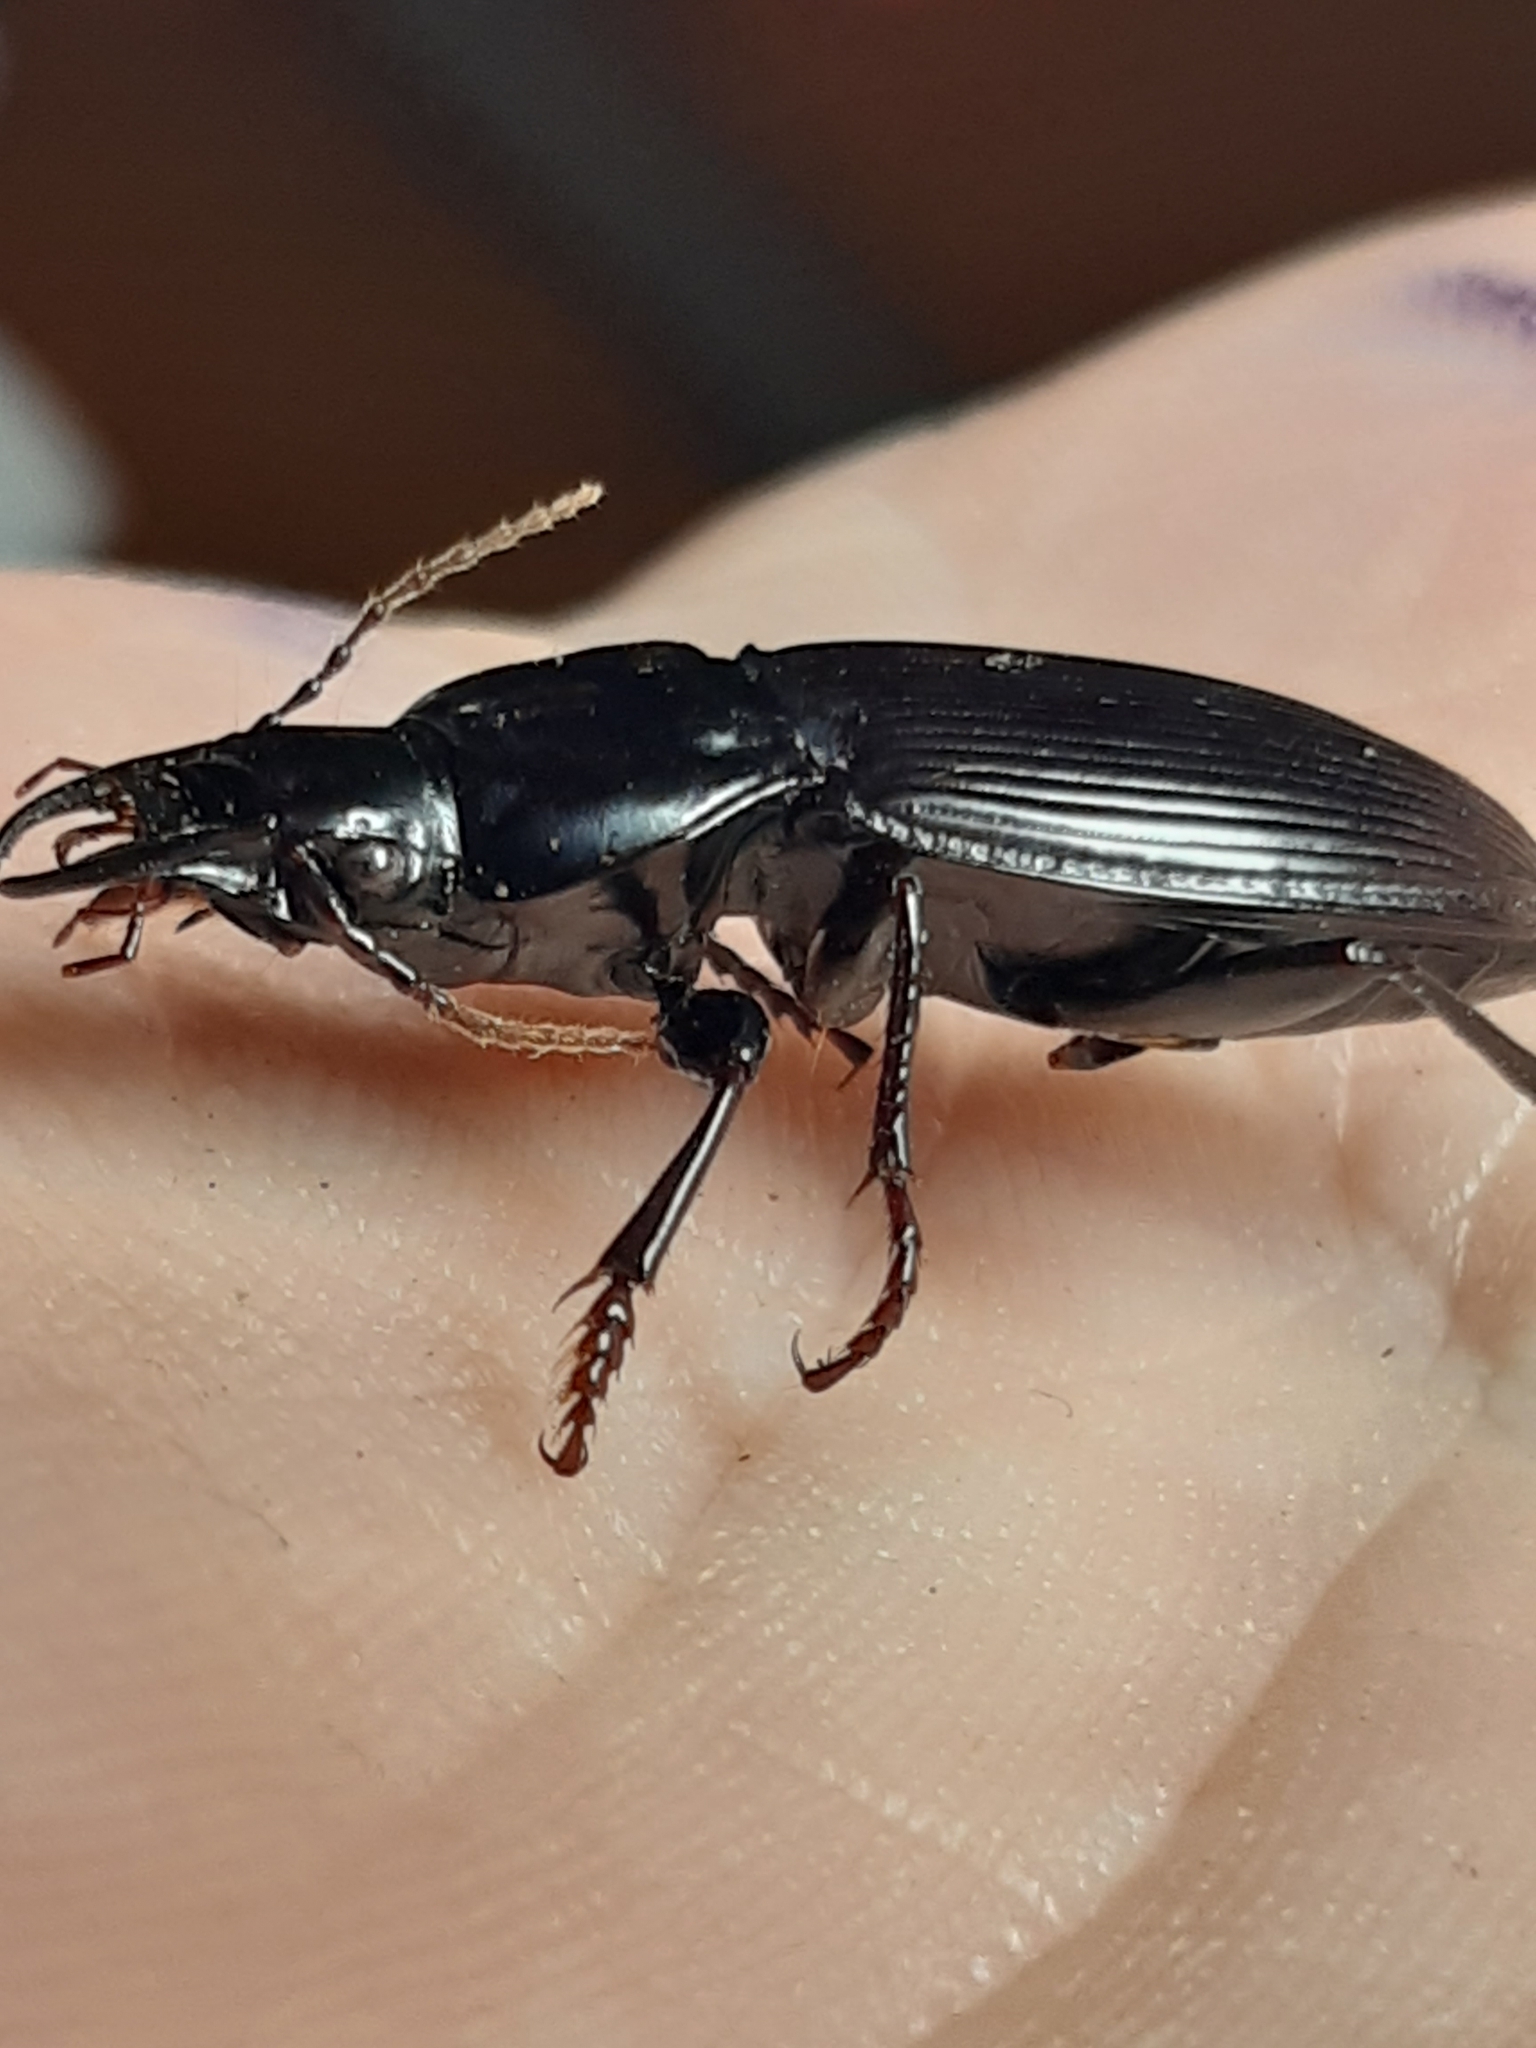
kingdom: Animalia
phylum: Arthropoda
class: Insecta
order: Coleoptera
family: Carabidae
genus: Plocamostethus
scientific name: Plocamostethus planiusculus
